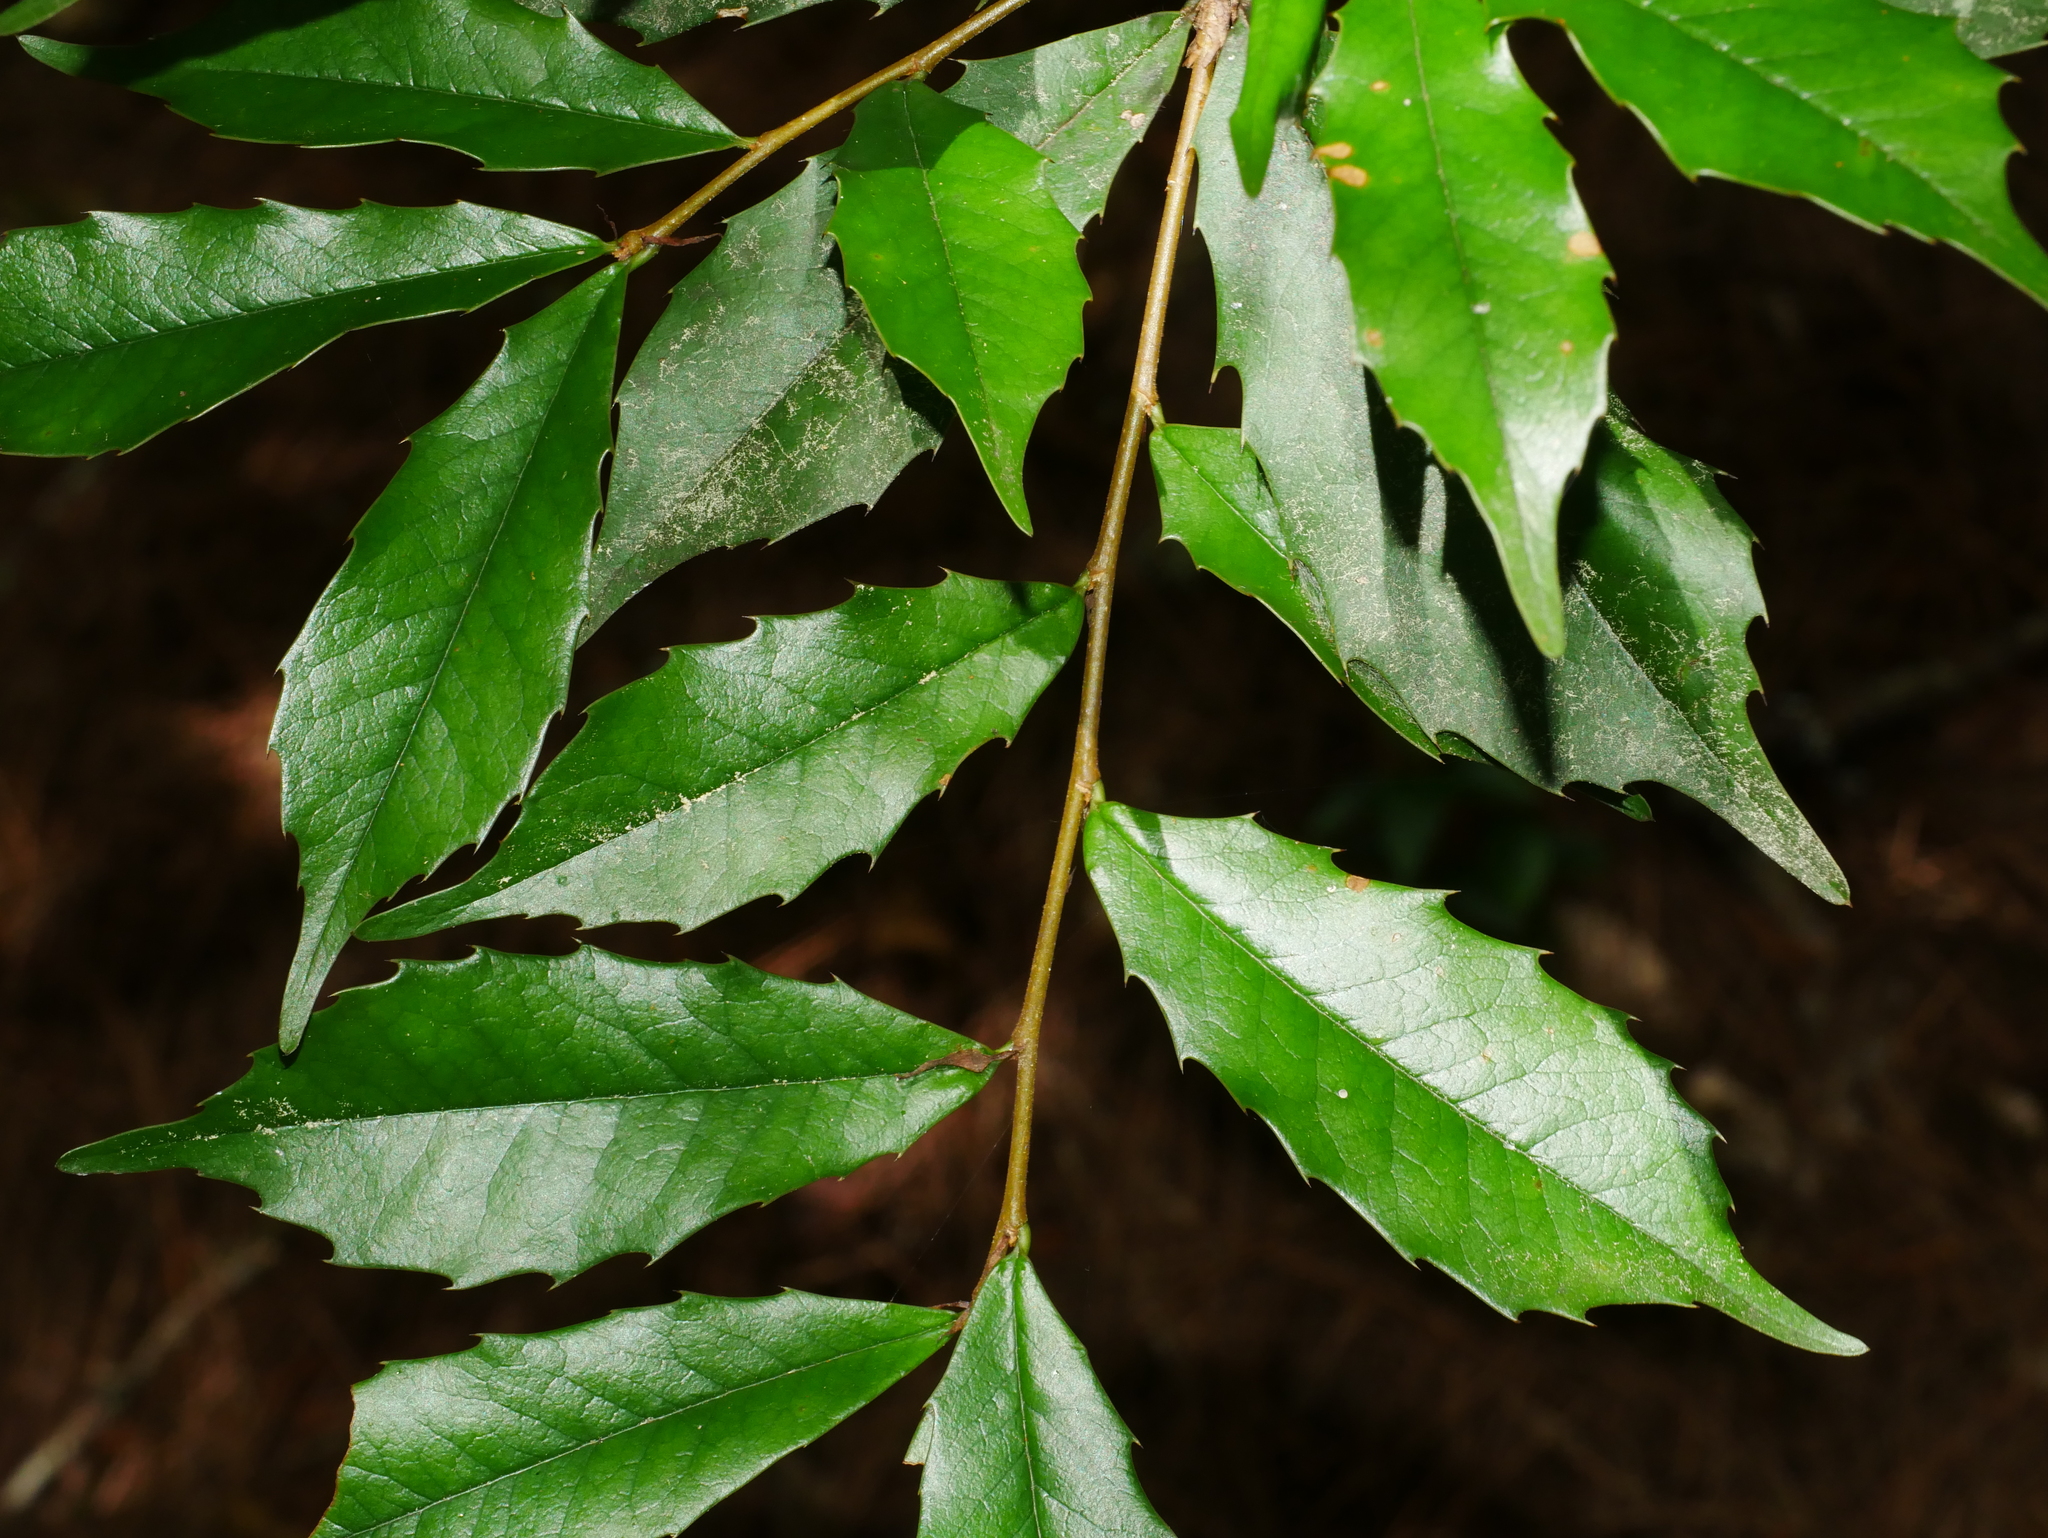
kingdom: Plantae
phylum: Tracheophyta
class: Magnoliopsida
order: Rosales
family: Rosaceae
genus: Prunus
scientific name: Prunus spinulosa
